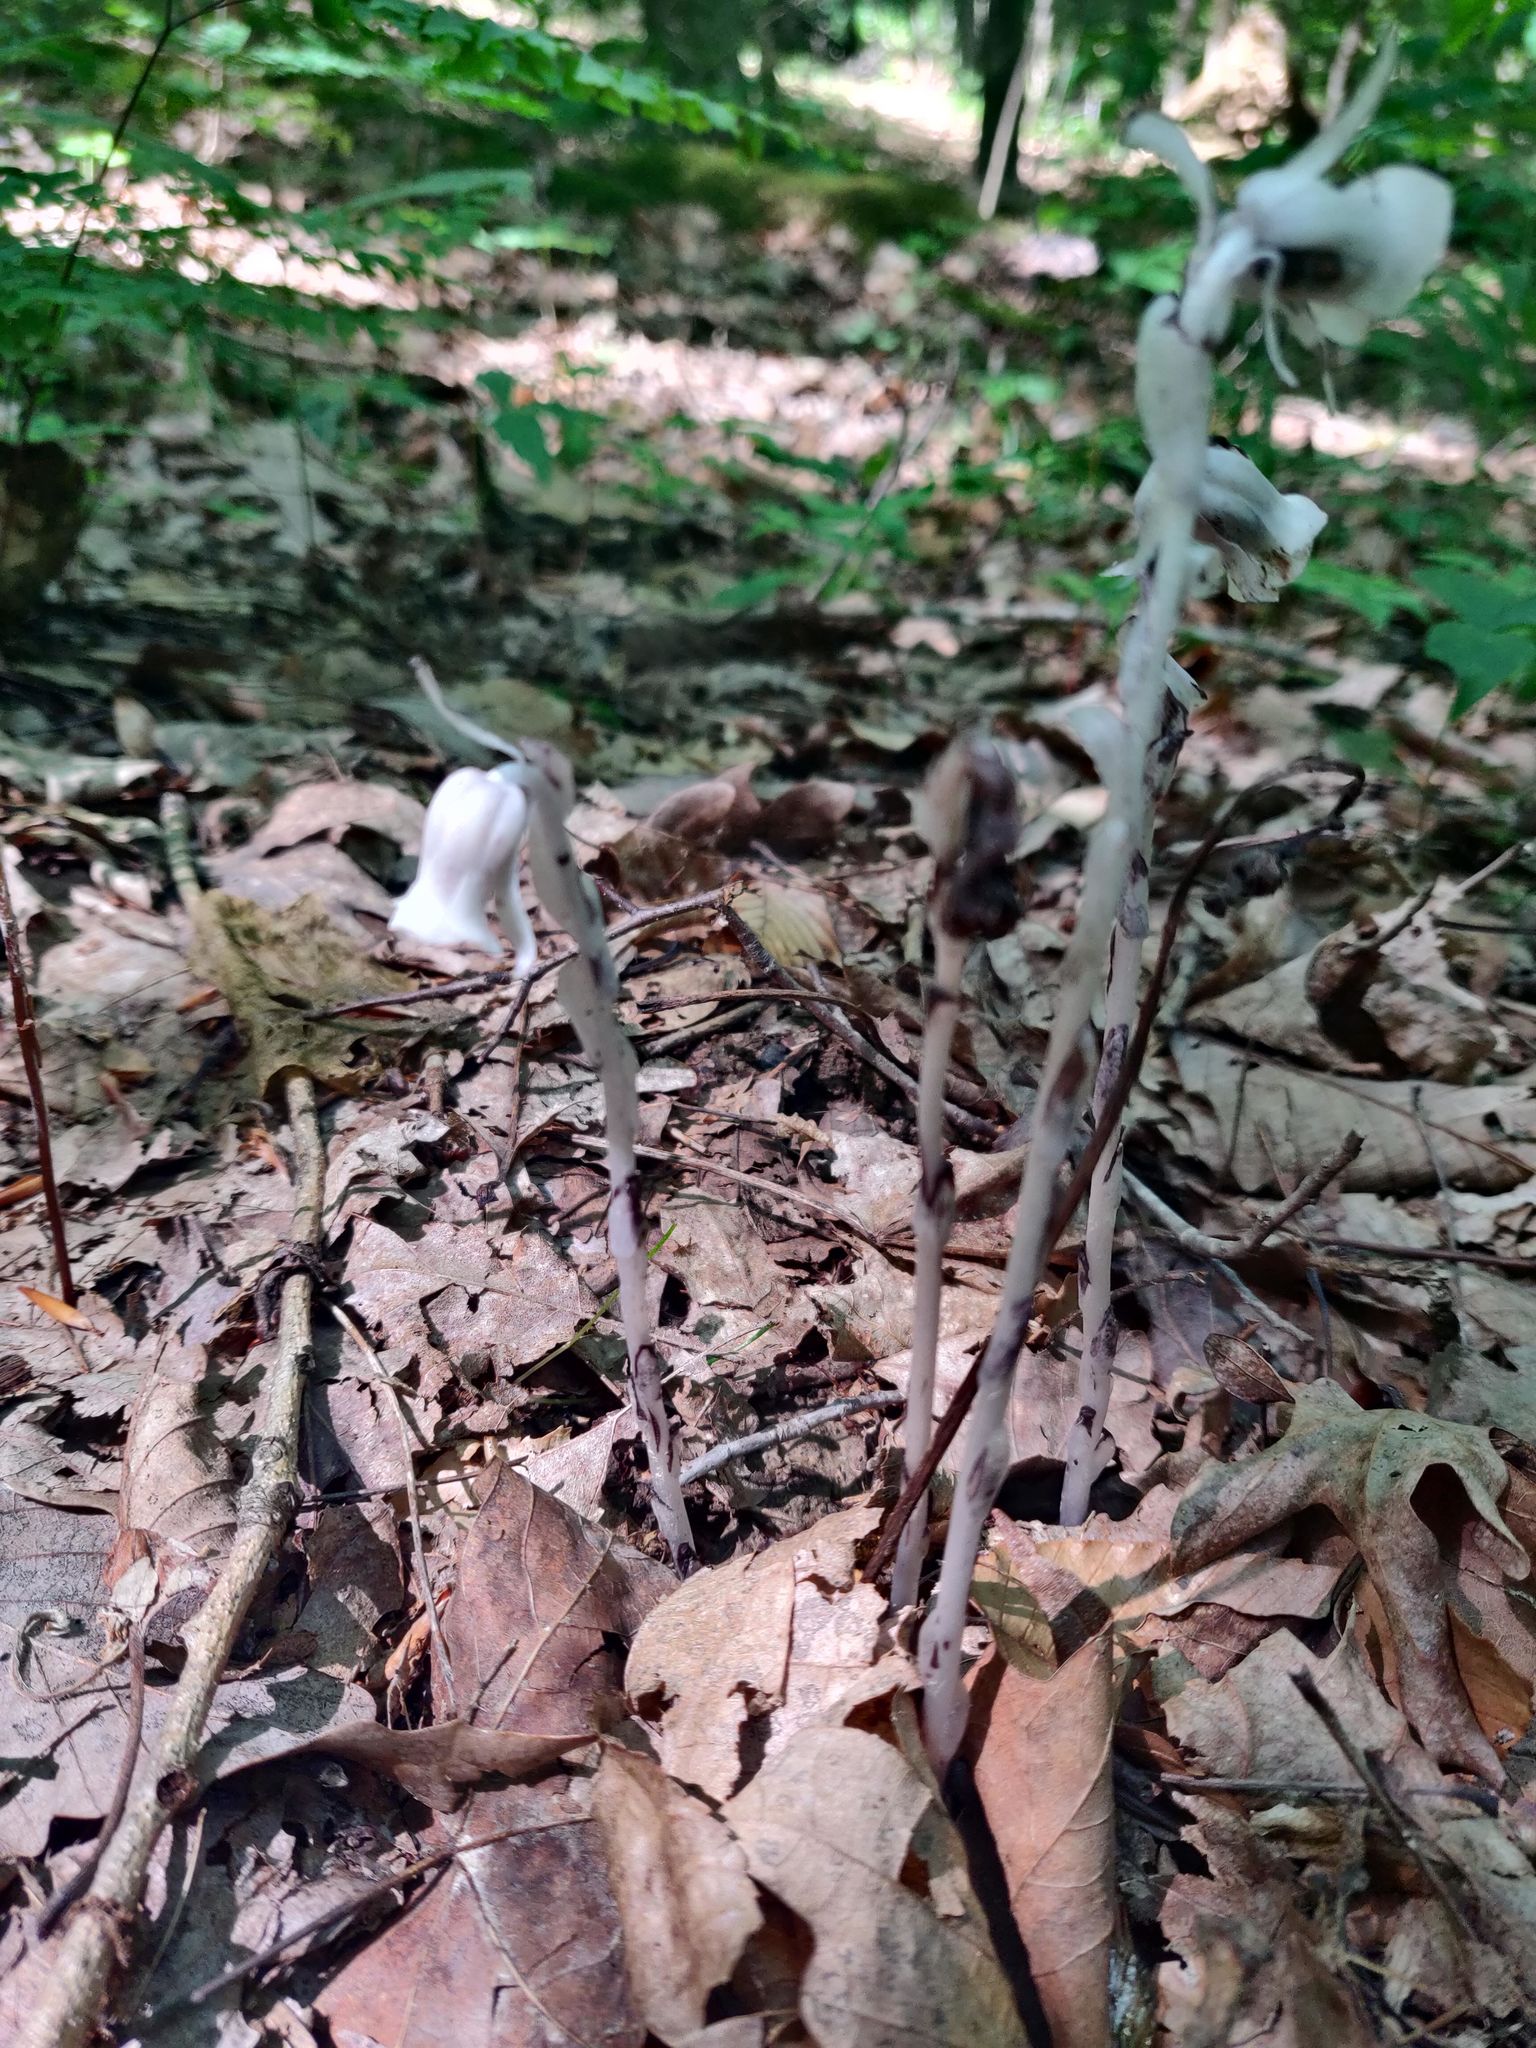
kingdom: Plantae
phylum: Tracheophyta
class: Magnoliopsida
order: Ericales
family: Ericaceae
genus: Monotropa
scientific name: Monotropa uniflora
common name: Convulsion root
